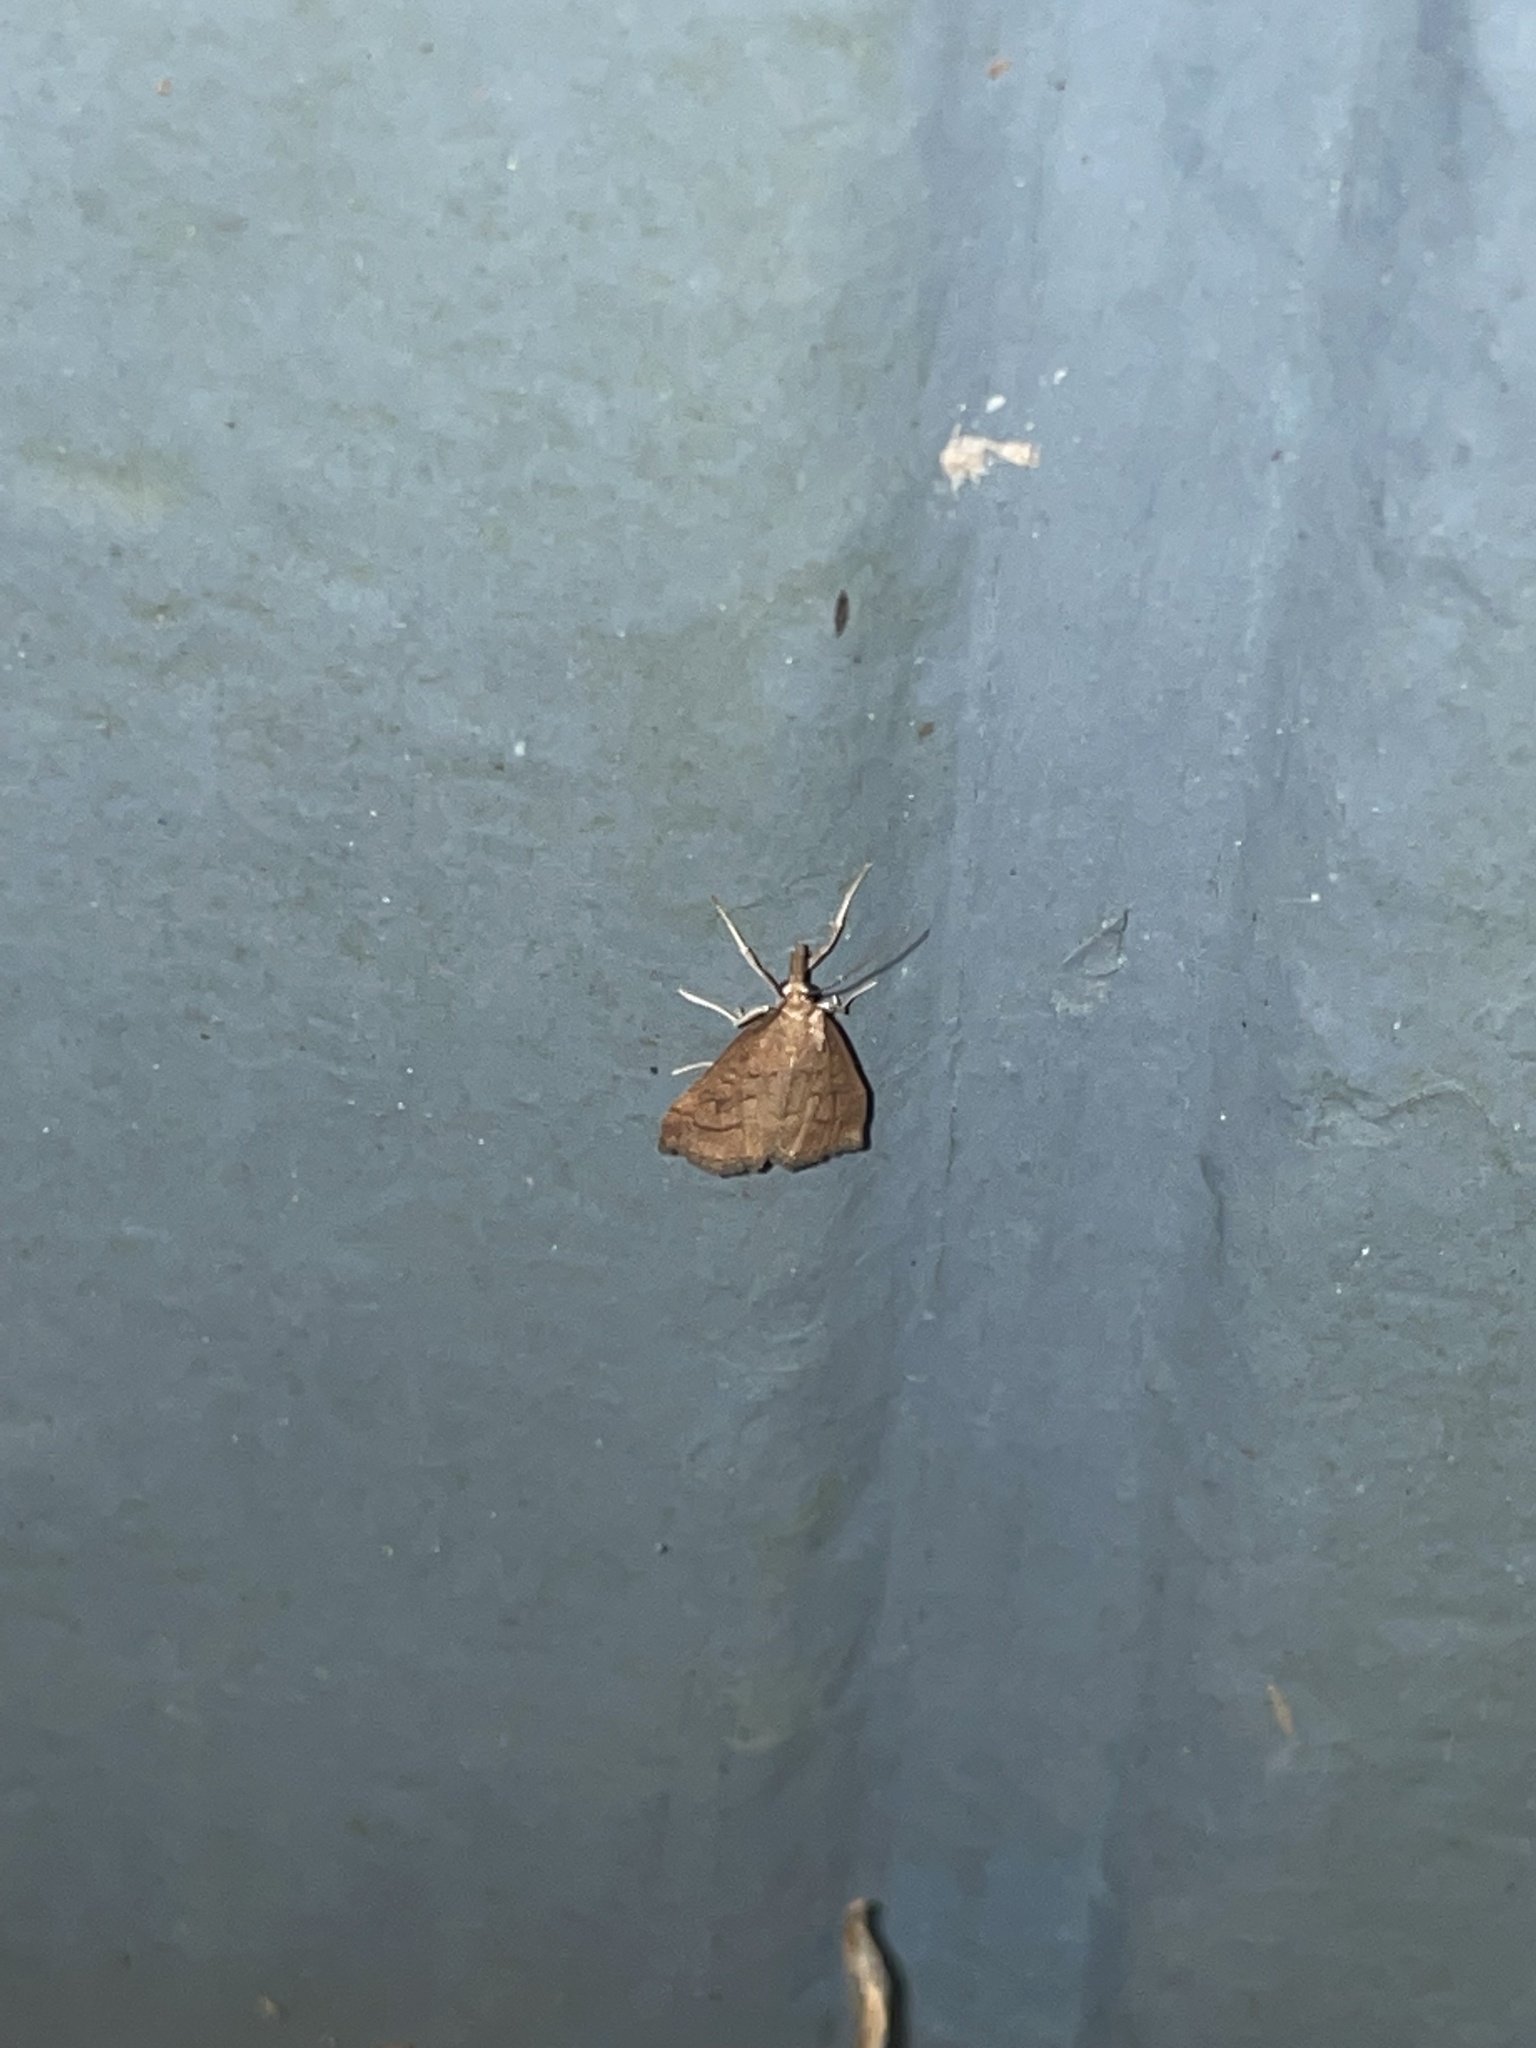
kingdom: Animalia
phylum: Arthropoda
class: Insecta
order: Lepidoptera
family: Crambidae
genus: Udea
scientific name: Udea rubigalis
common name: Celery leaftier moth
